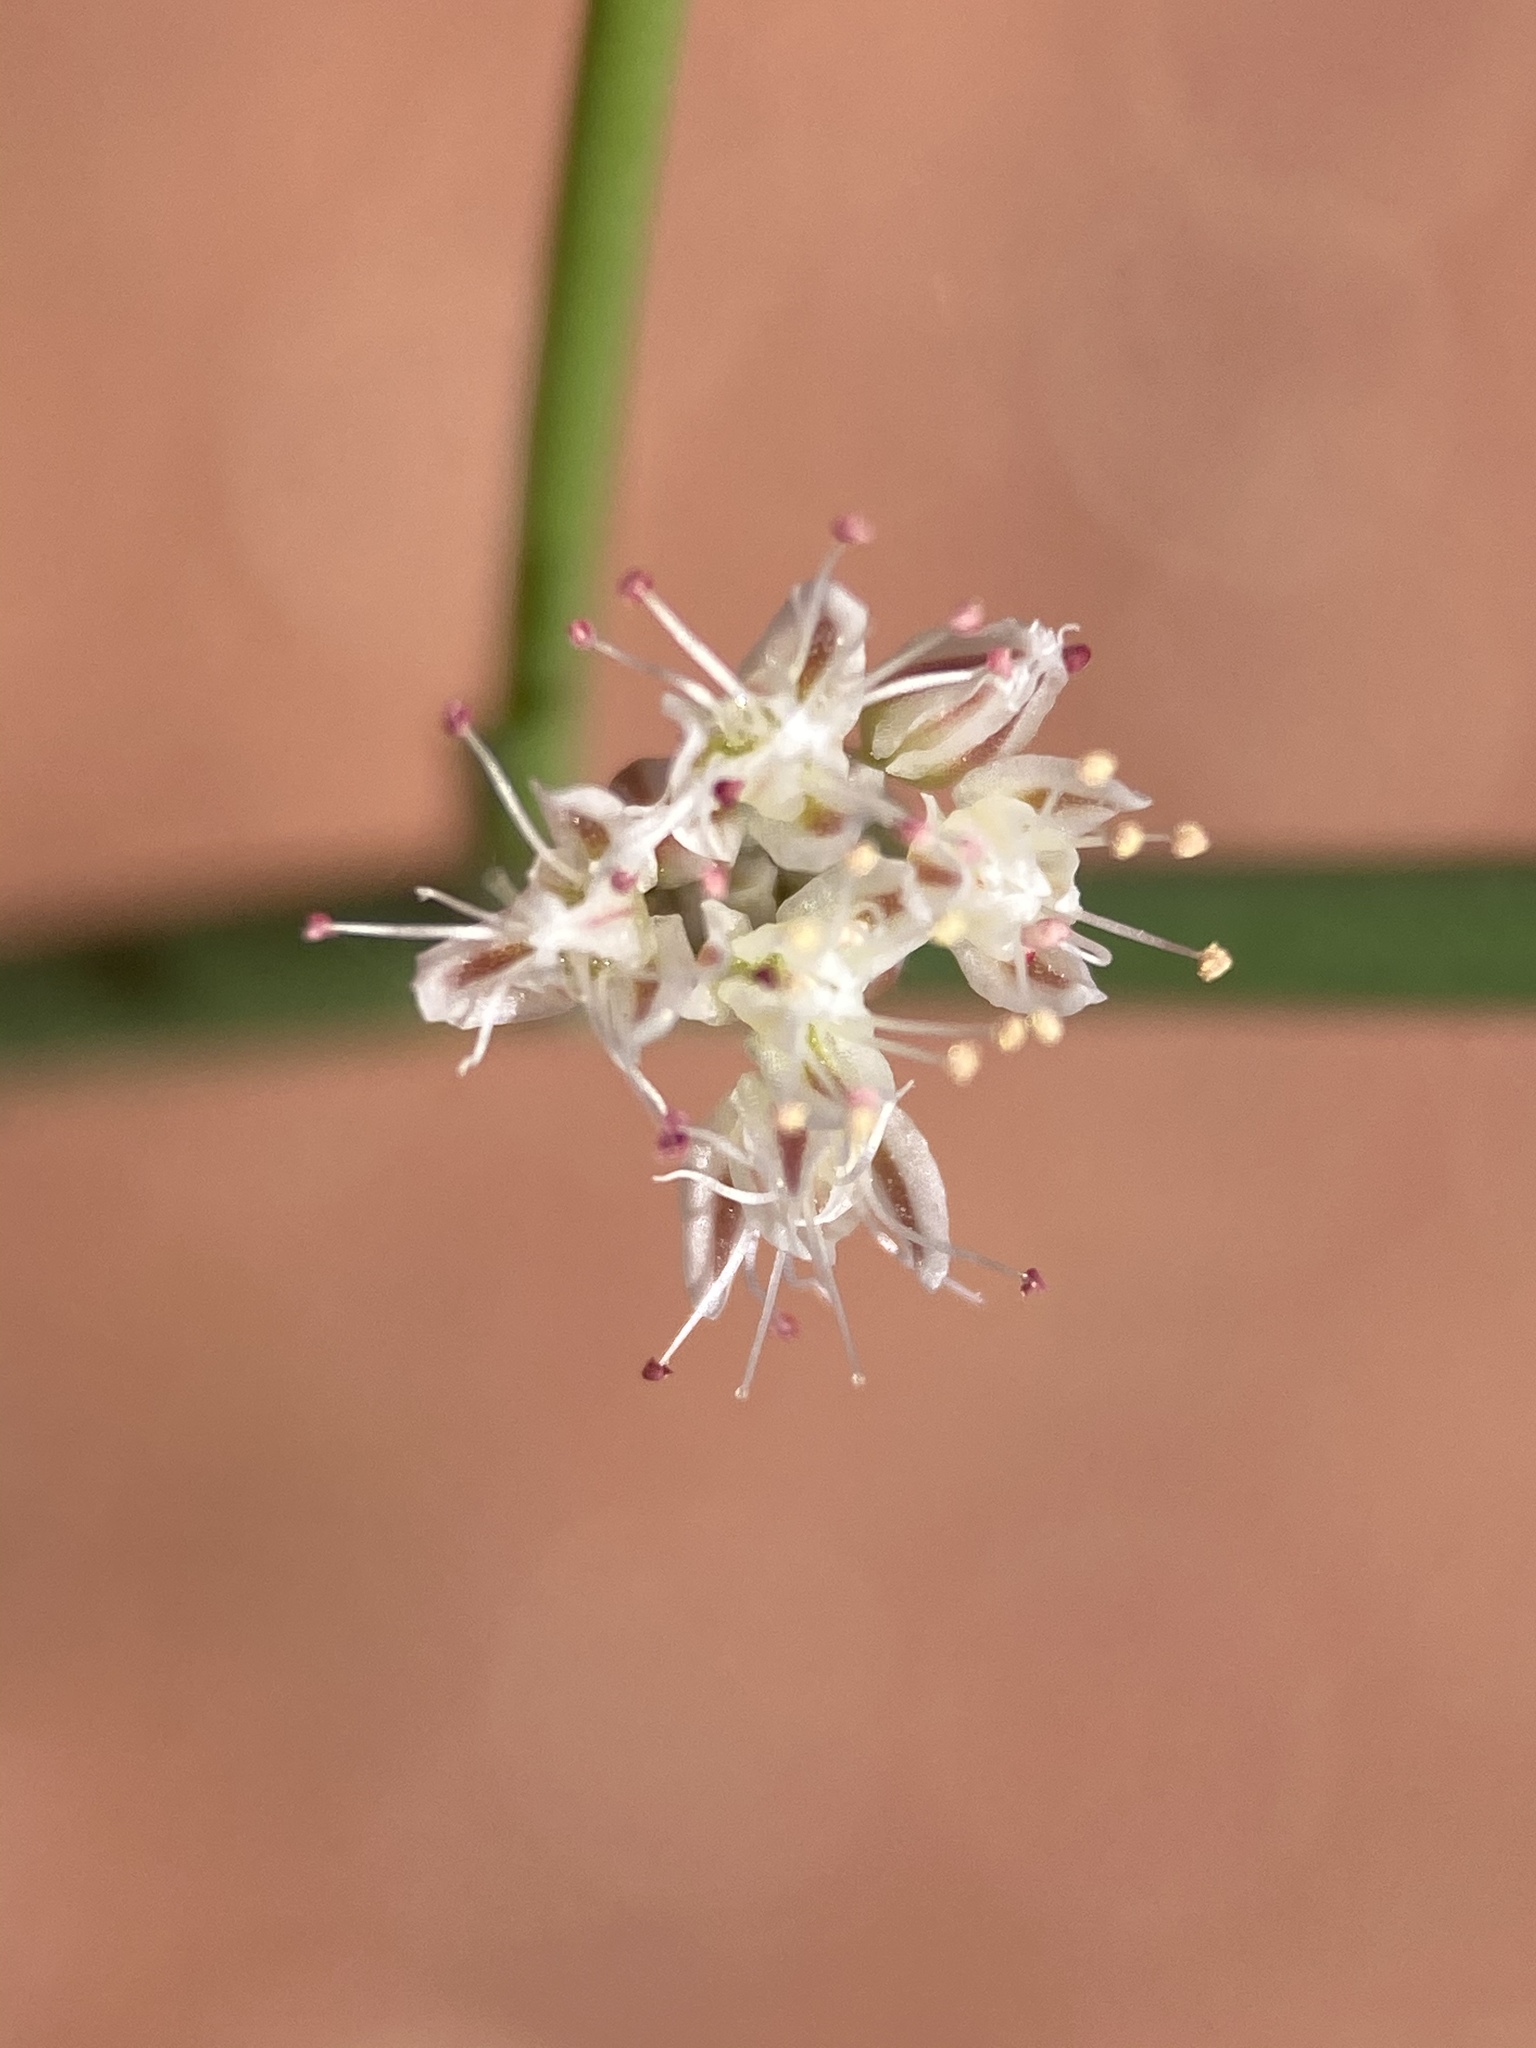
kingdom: Plantae
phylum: Tracheophyta
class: Magnoliopsida
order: Caryophyllales
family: Polygonaceae
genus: Eriogonum
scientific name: Eriogonum exaltatum
